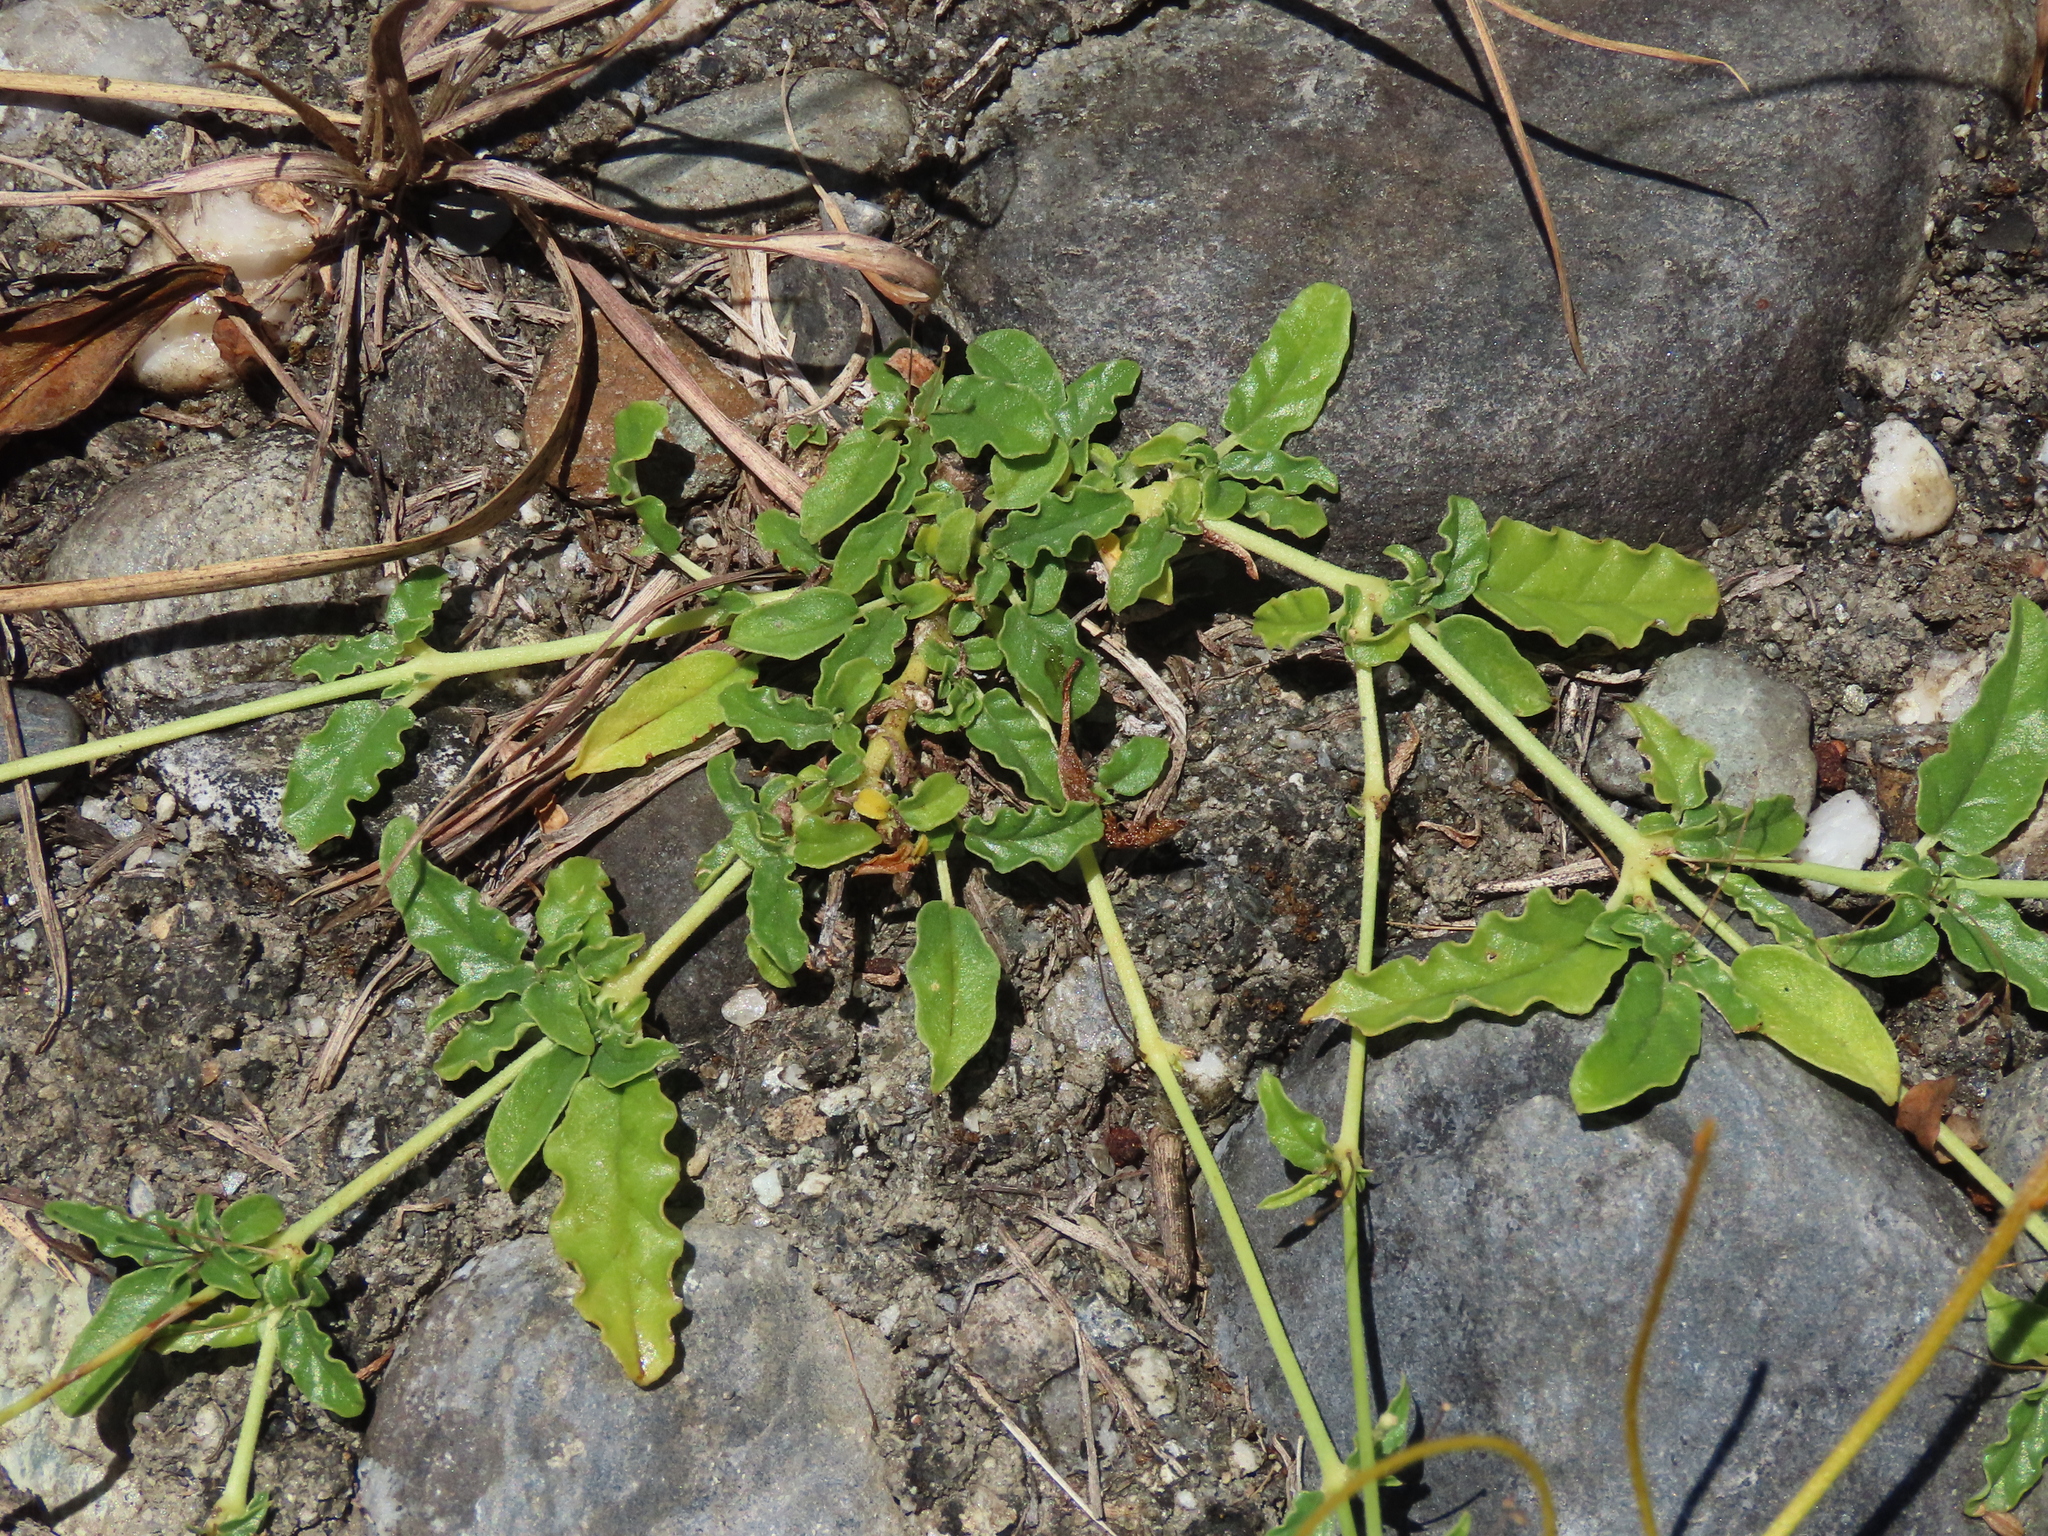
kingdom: Plantae
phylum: Tracheophyta
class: Magnoliopsida
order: Caryophyllales
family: Nyctaginaceae
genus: Boerhavia
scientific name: Boerhavia hualienensis
